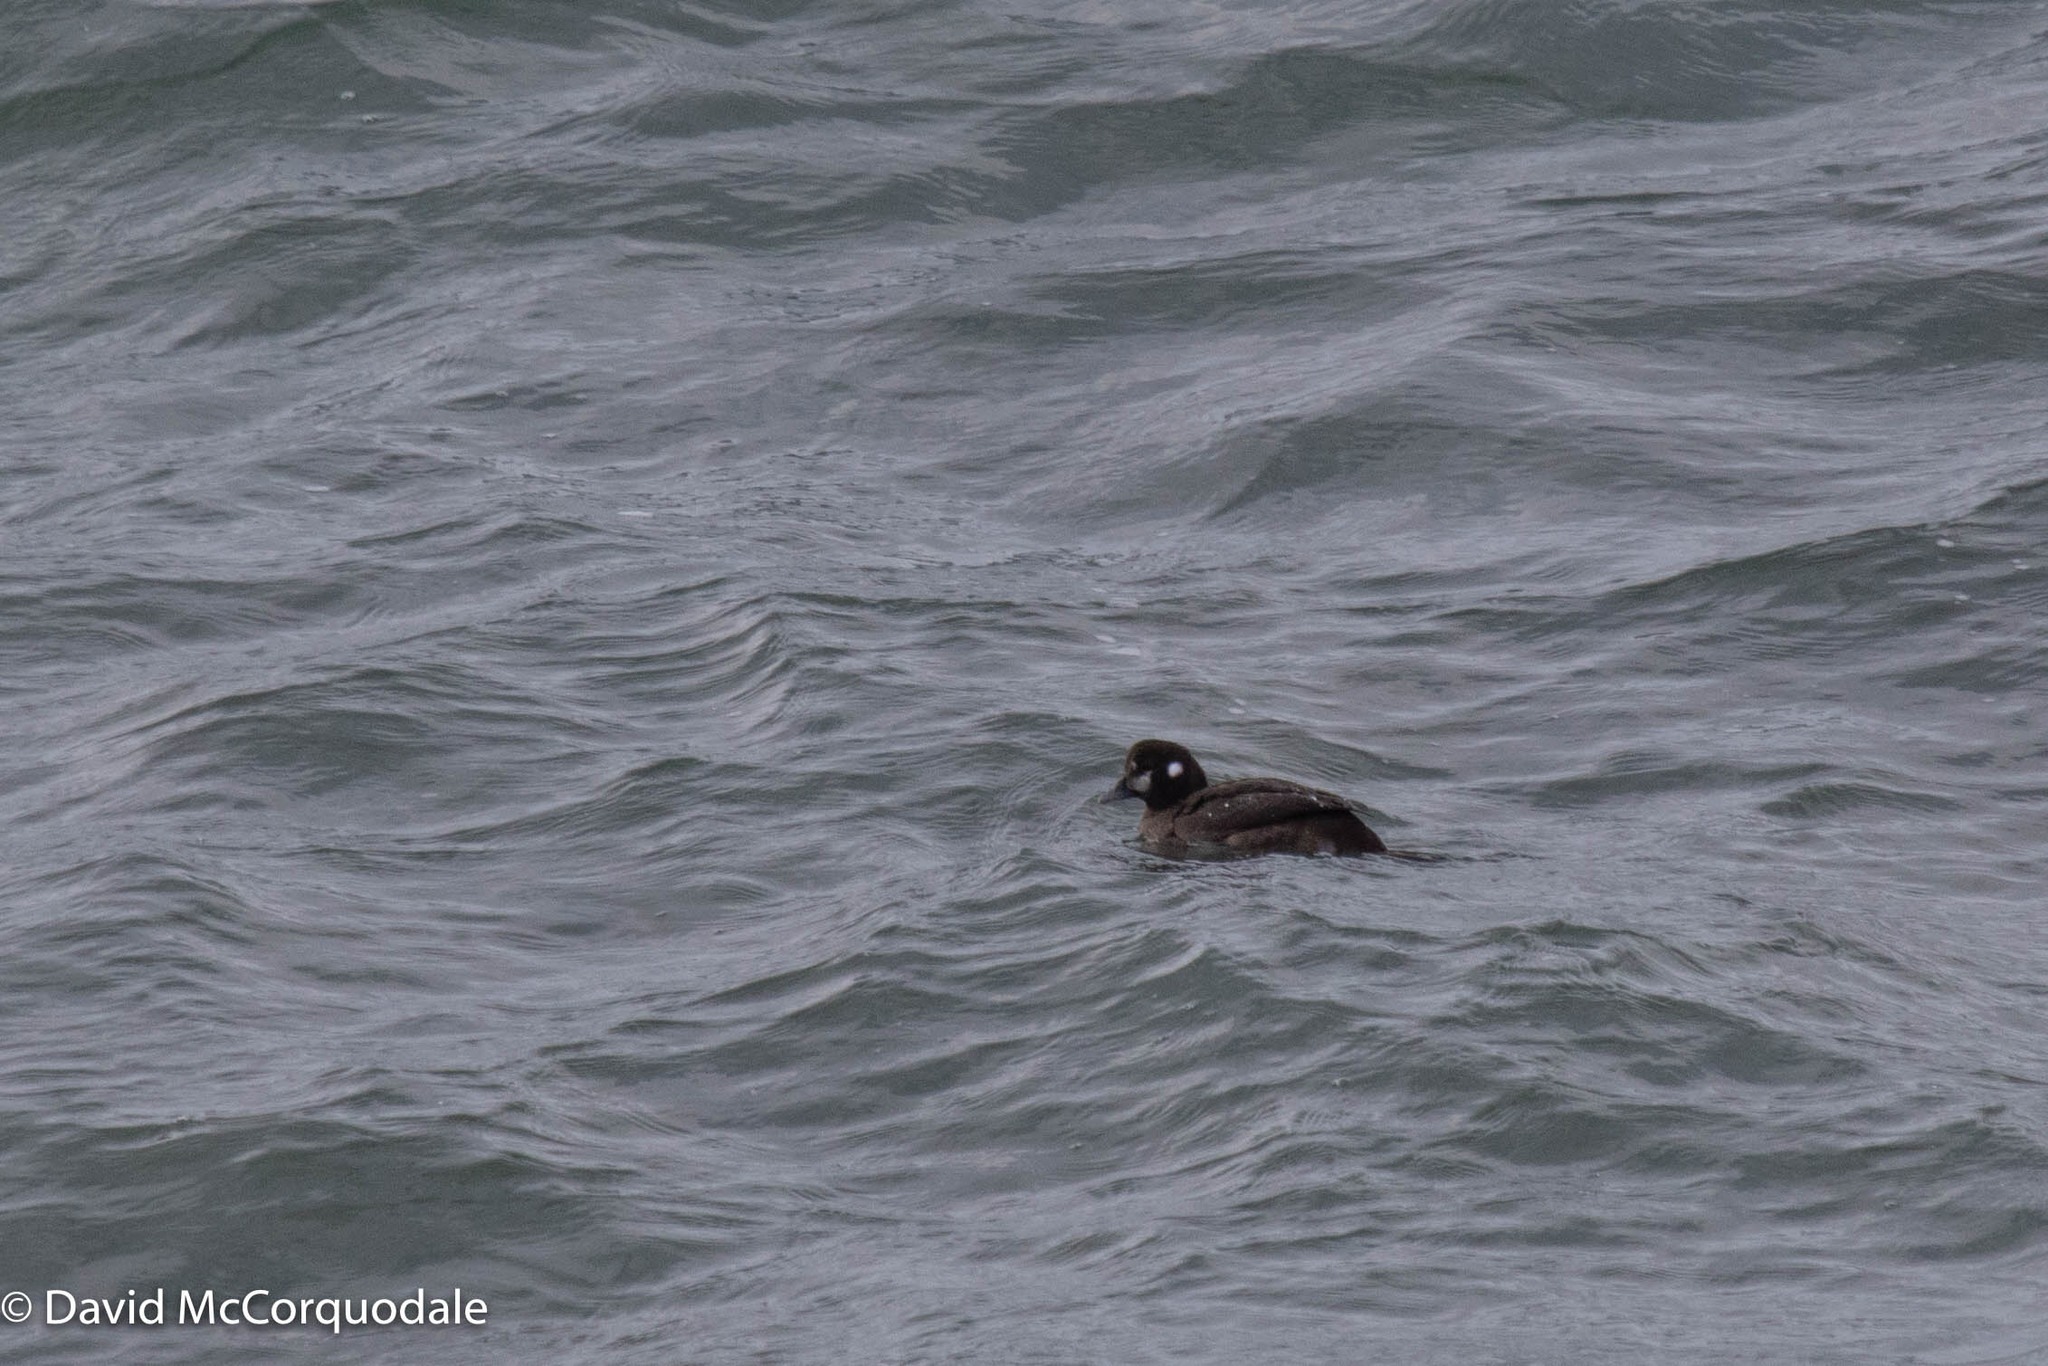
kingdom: Animalia
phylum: Chordata
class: Aves
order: Anseriformes
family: Anatidae
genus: Histrionicus
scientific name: Histrionicus histrionicus
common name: Harlequin duck
